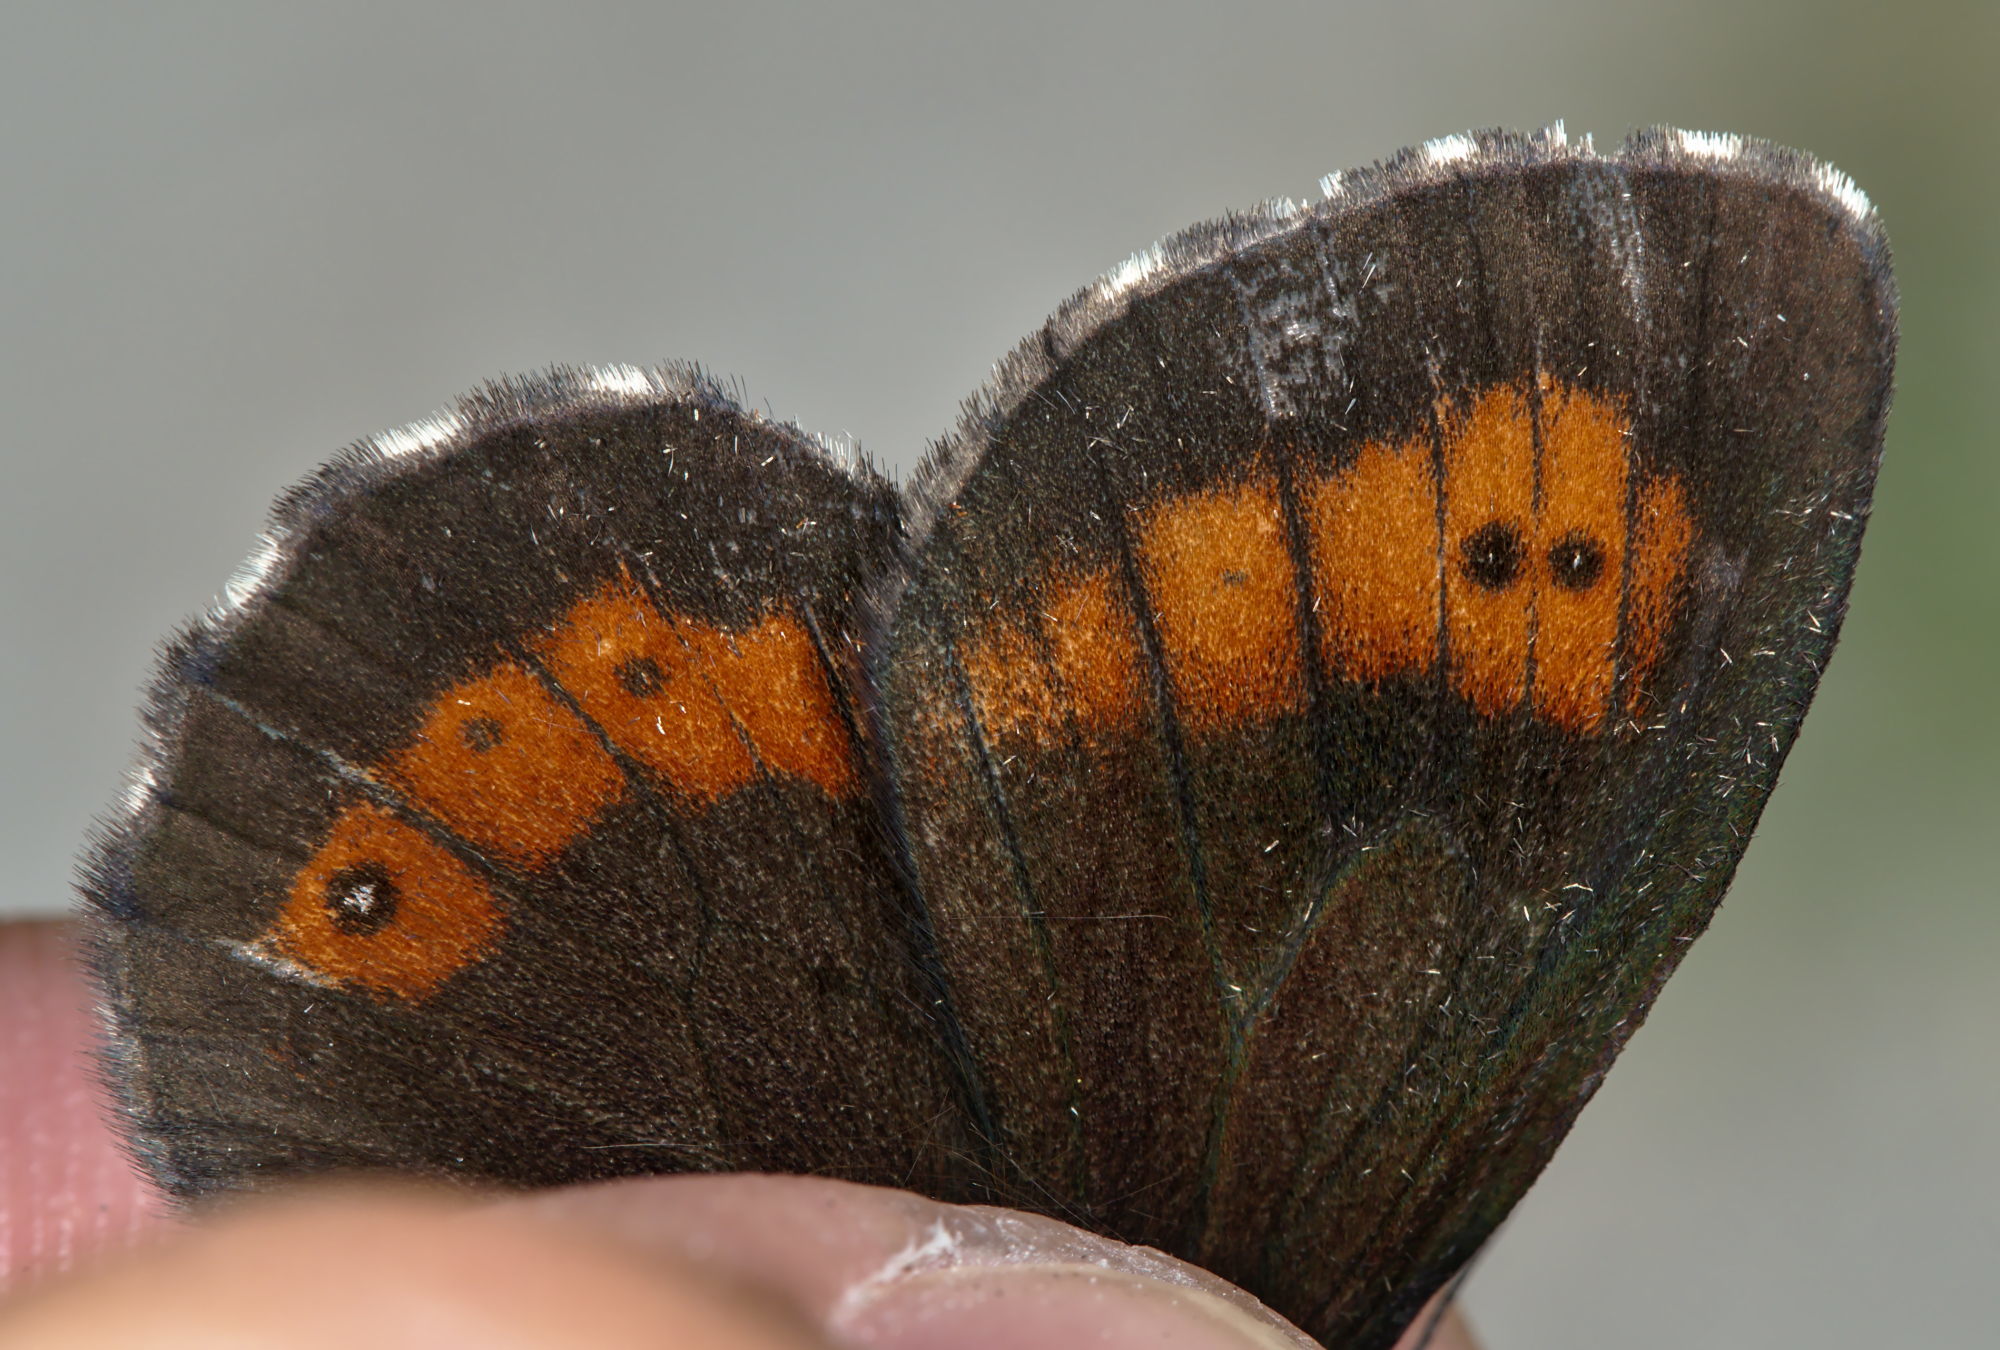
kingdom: Animalia
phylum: Arthropoda
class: Insecta
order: Lepidoptera
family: Nymphalidae
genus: Erebia
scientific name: Erebia euryale
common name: Large ringlet
